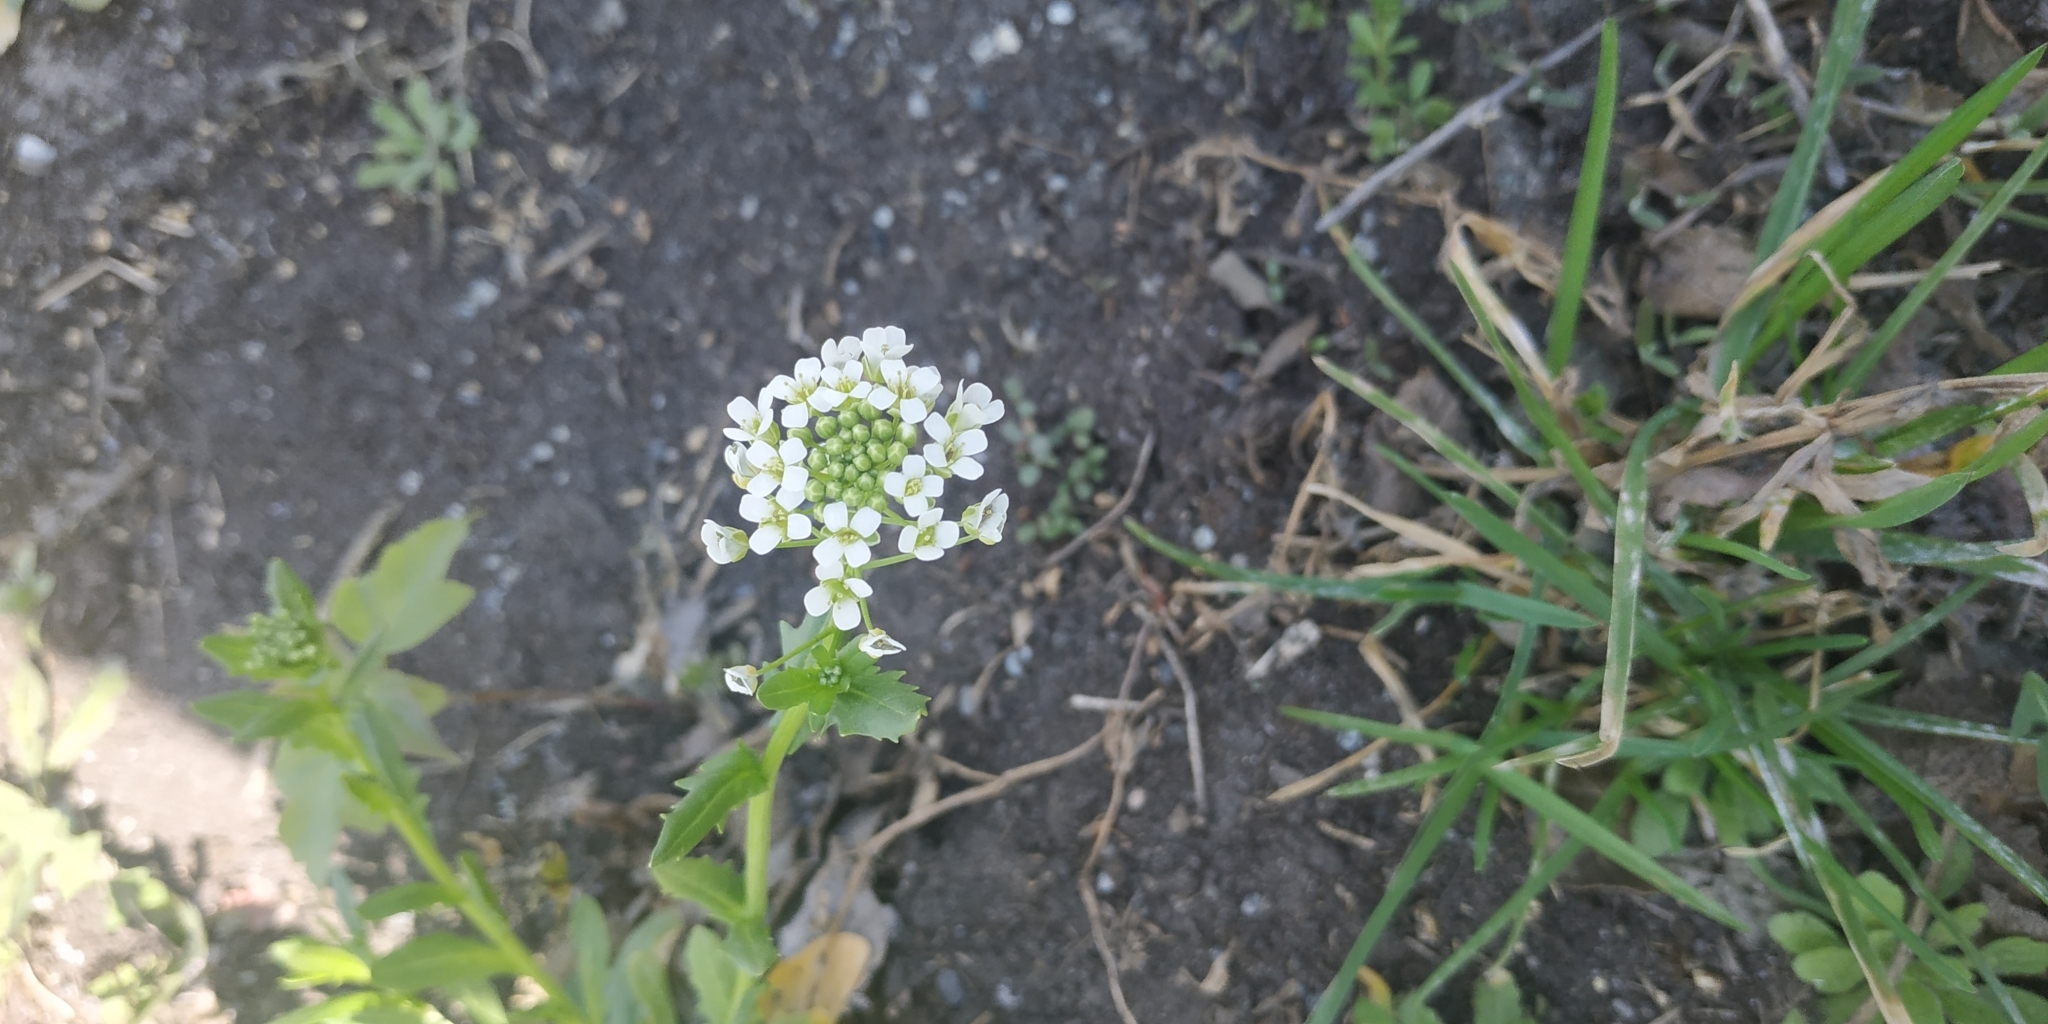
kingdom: Plantae
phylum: Tracheophyta
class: Magnoliopsida
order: Brassicales
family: Brassicaceae
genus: Thlaspi
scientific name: Thlaspi arvense
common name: Field pennycress
